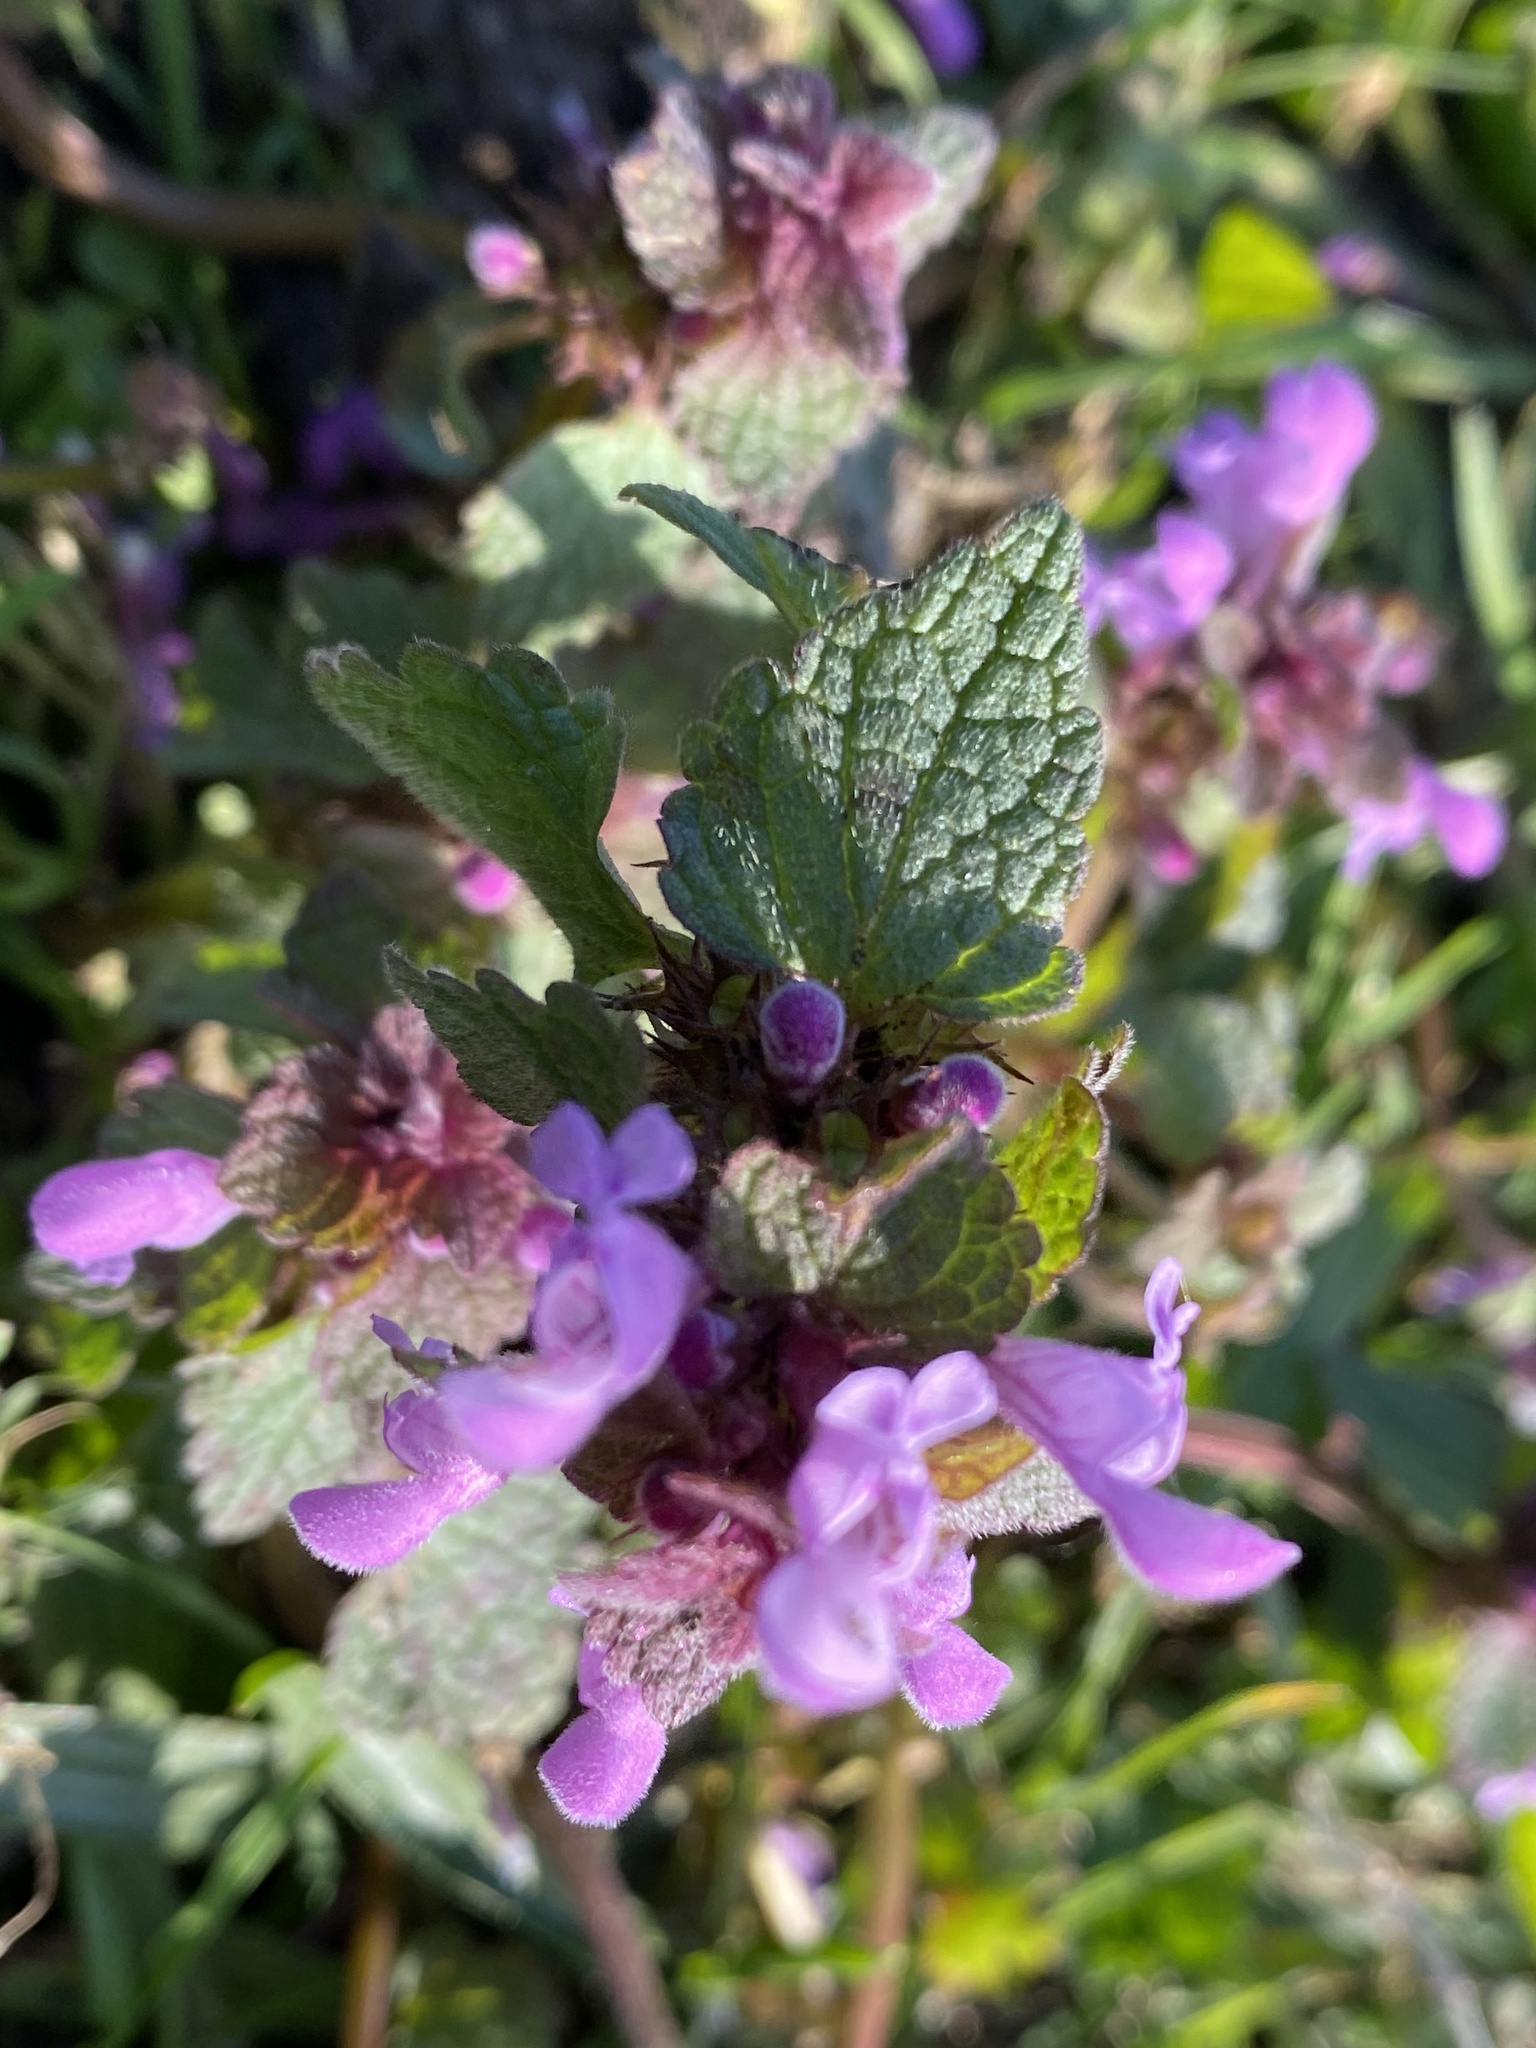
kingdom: Plantae
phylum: Tracheophyta
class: Magnoliopsida
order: Lamiales
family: Lamiaceae
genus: Lamium
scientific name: Lamium purpureum
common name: Red dead-nettle
